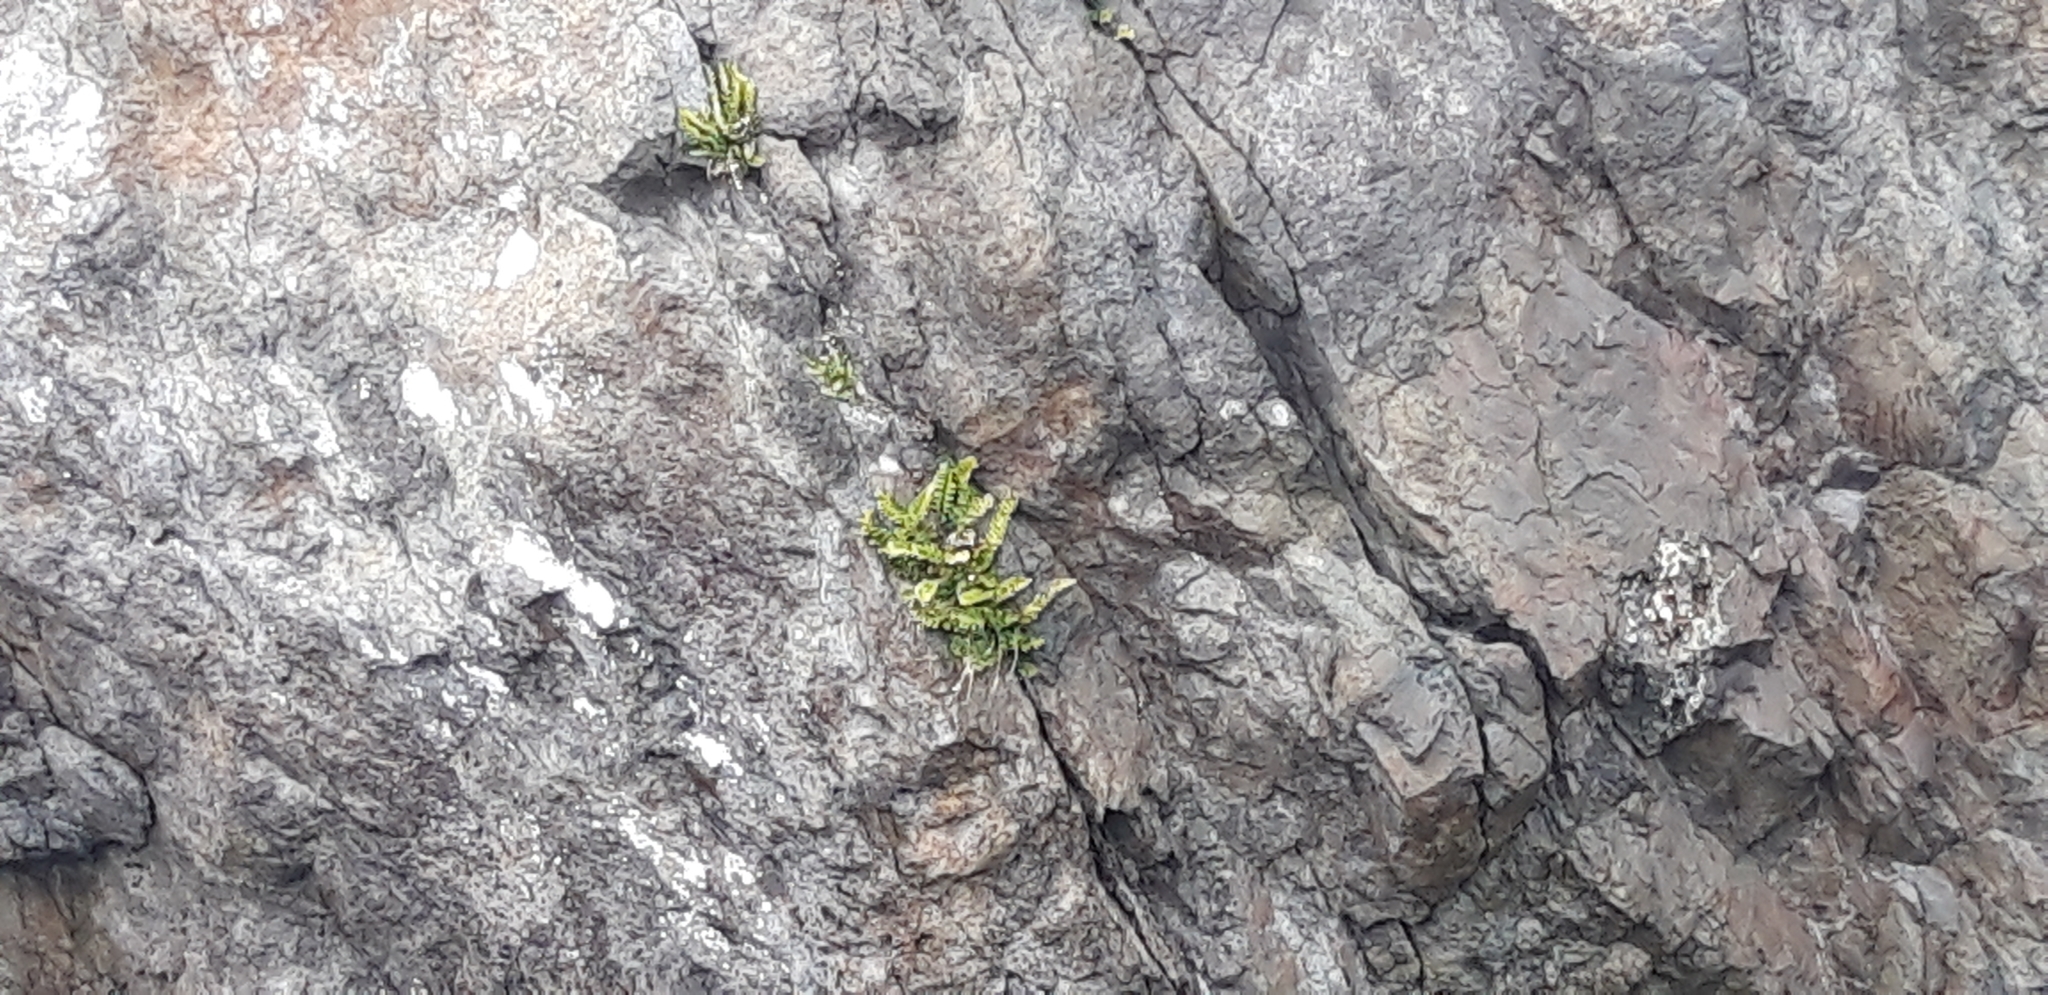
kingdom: Plantae
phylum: Tracheophyta
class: Polypodiopsida
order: Polypodiales
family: Aspleniaceae
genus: Asplenium
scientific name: Asplenium marinum
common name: Sea spleenwort
